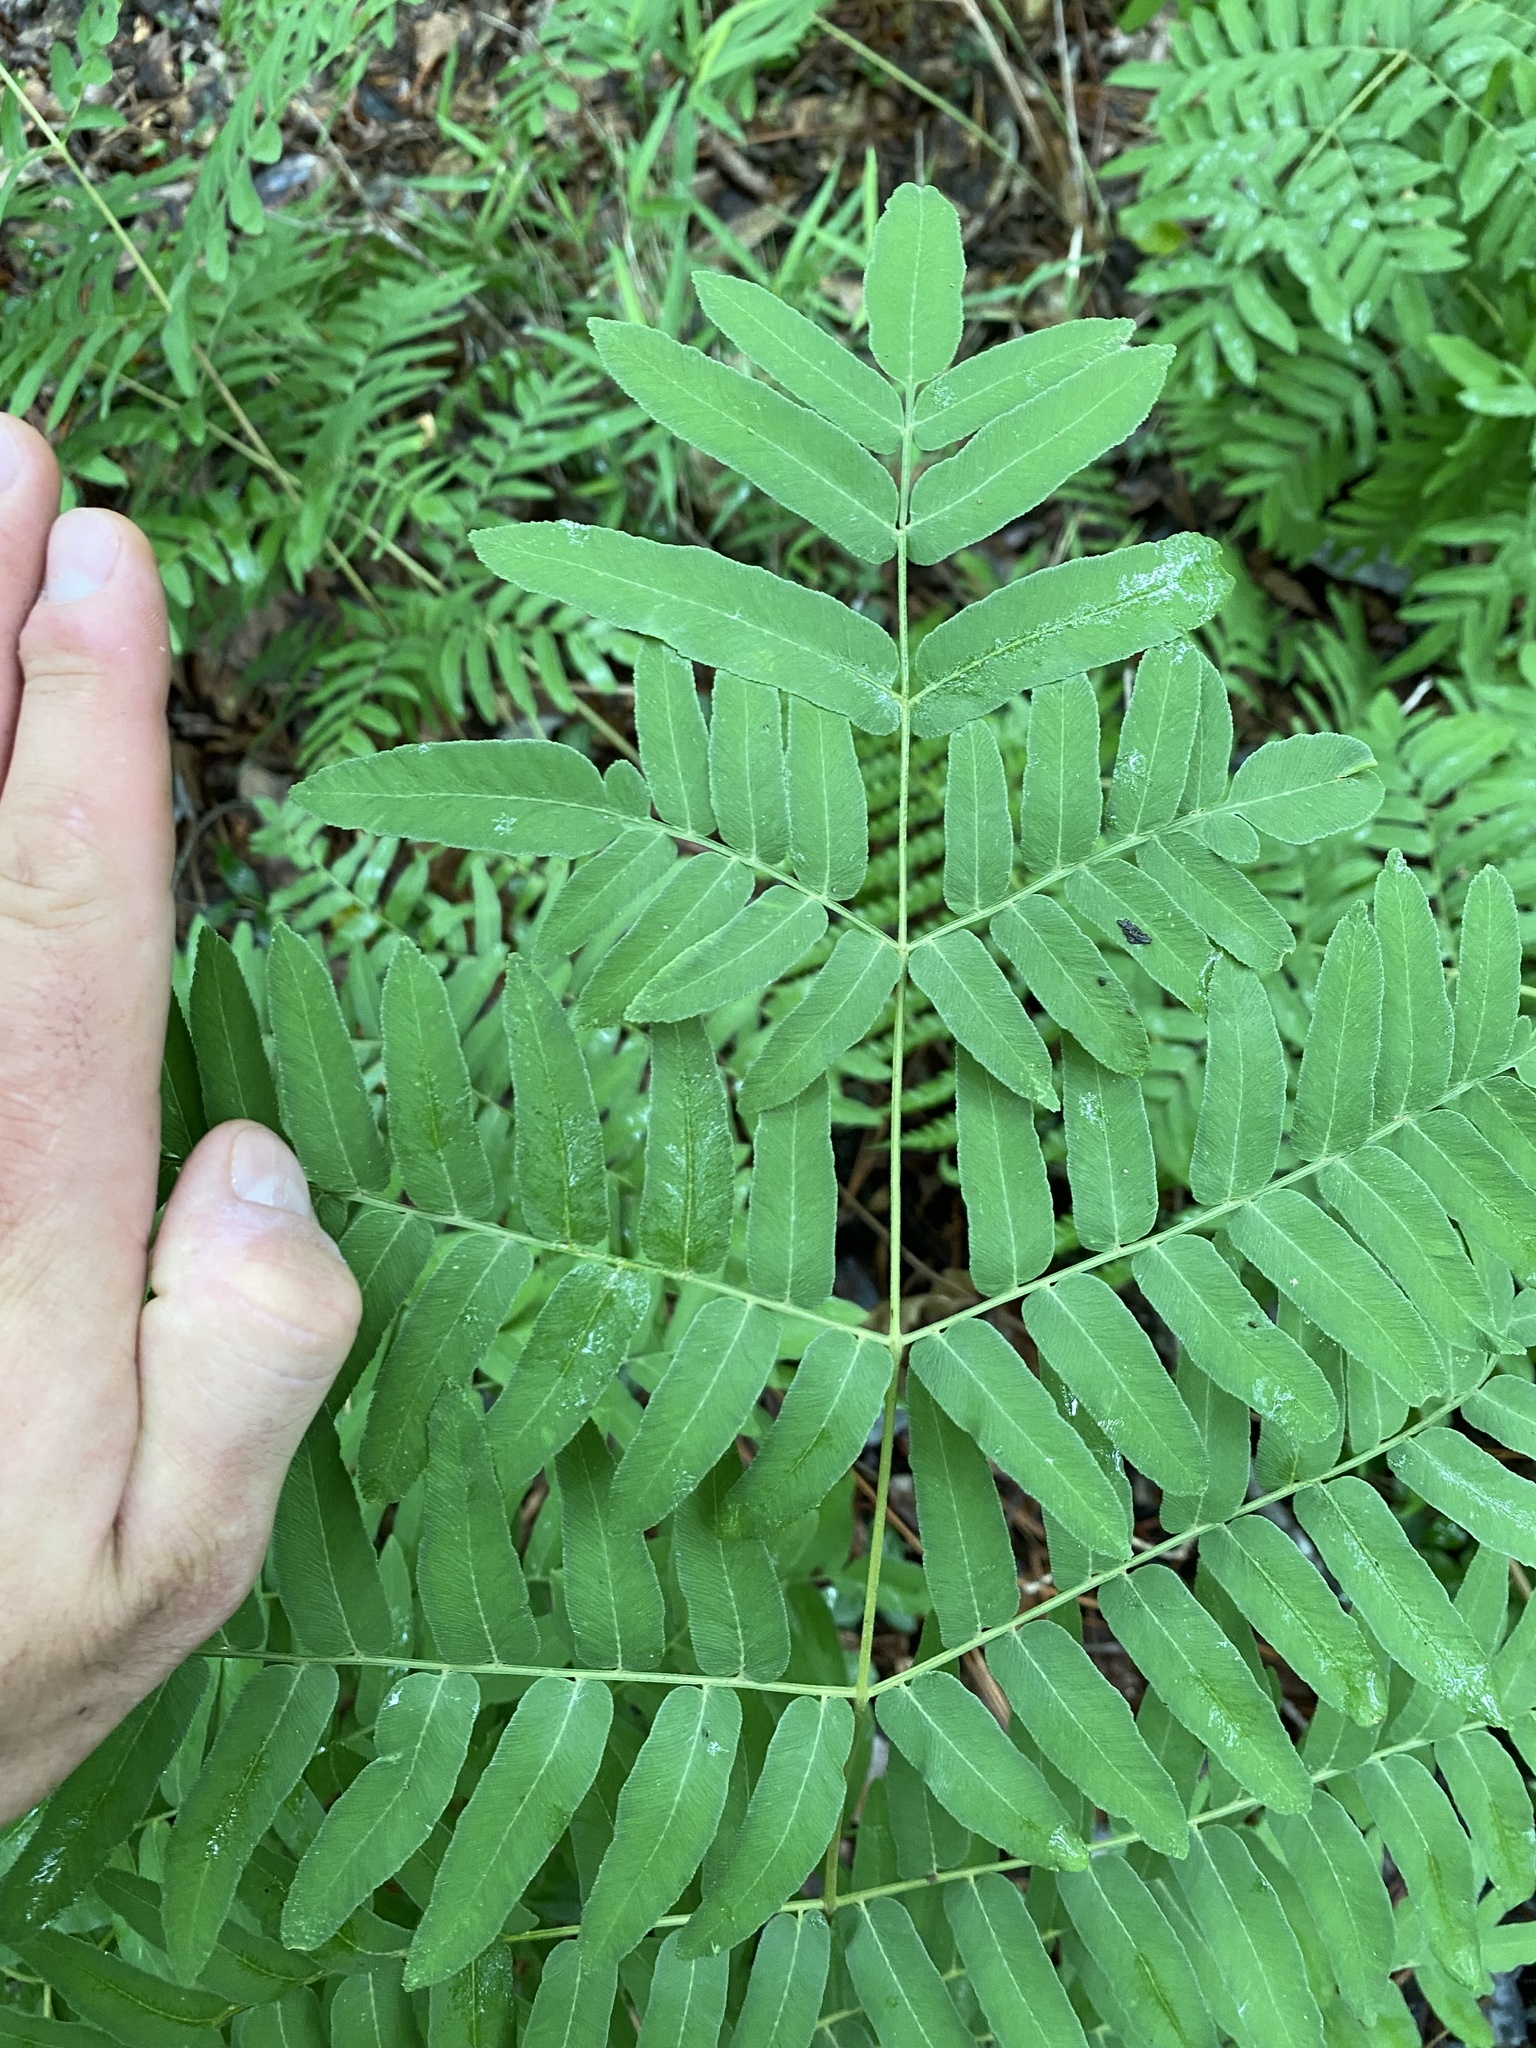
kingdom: Plantae
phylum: Tracheophyta
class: Polypodiopsida
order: Osmundales
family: Osmundaceae
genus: Osmunda
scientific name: Osmunda spectabilis
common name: American royal fern
